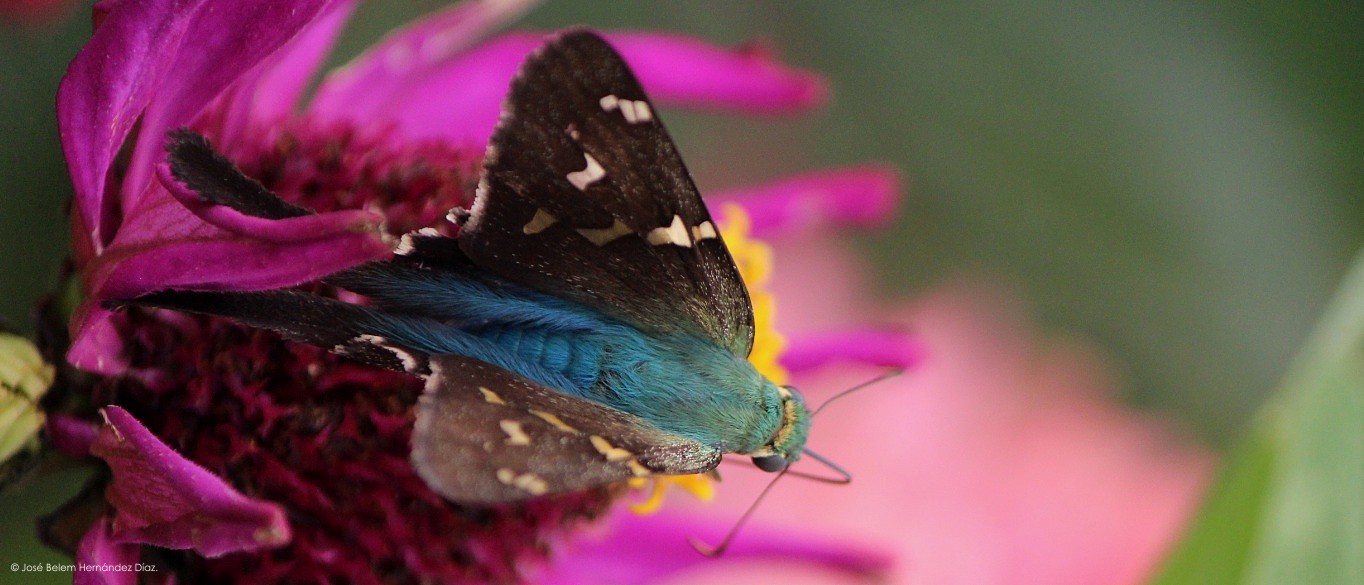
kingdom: Animalia
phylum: Arthropoda
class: Insecta
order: Lepidoptera
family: Hesperiidae
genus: Urbanus
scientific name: Urbanus proteus
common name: Long-tailed skipper
